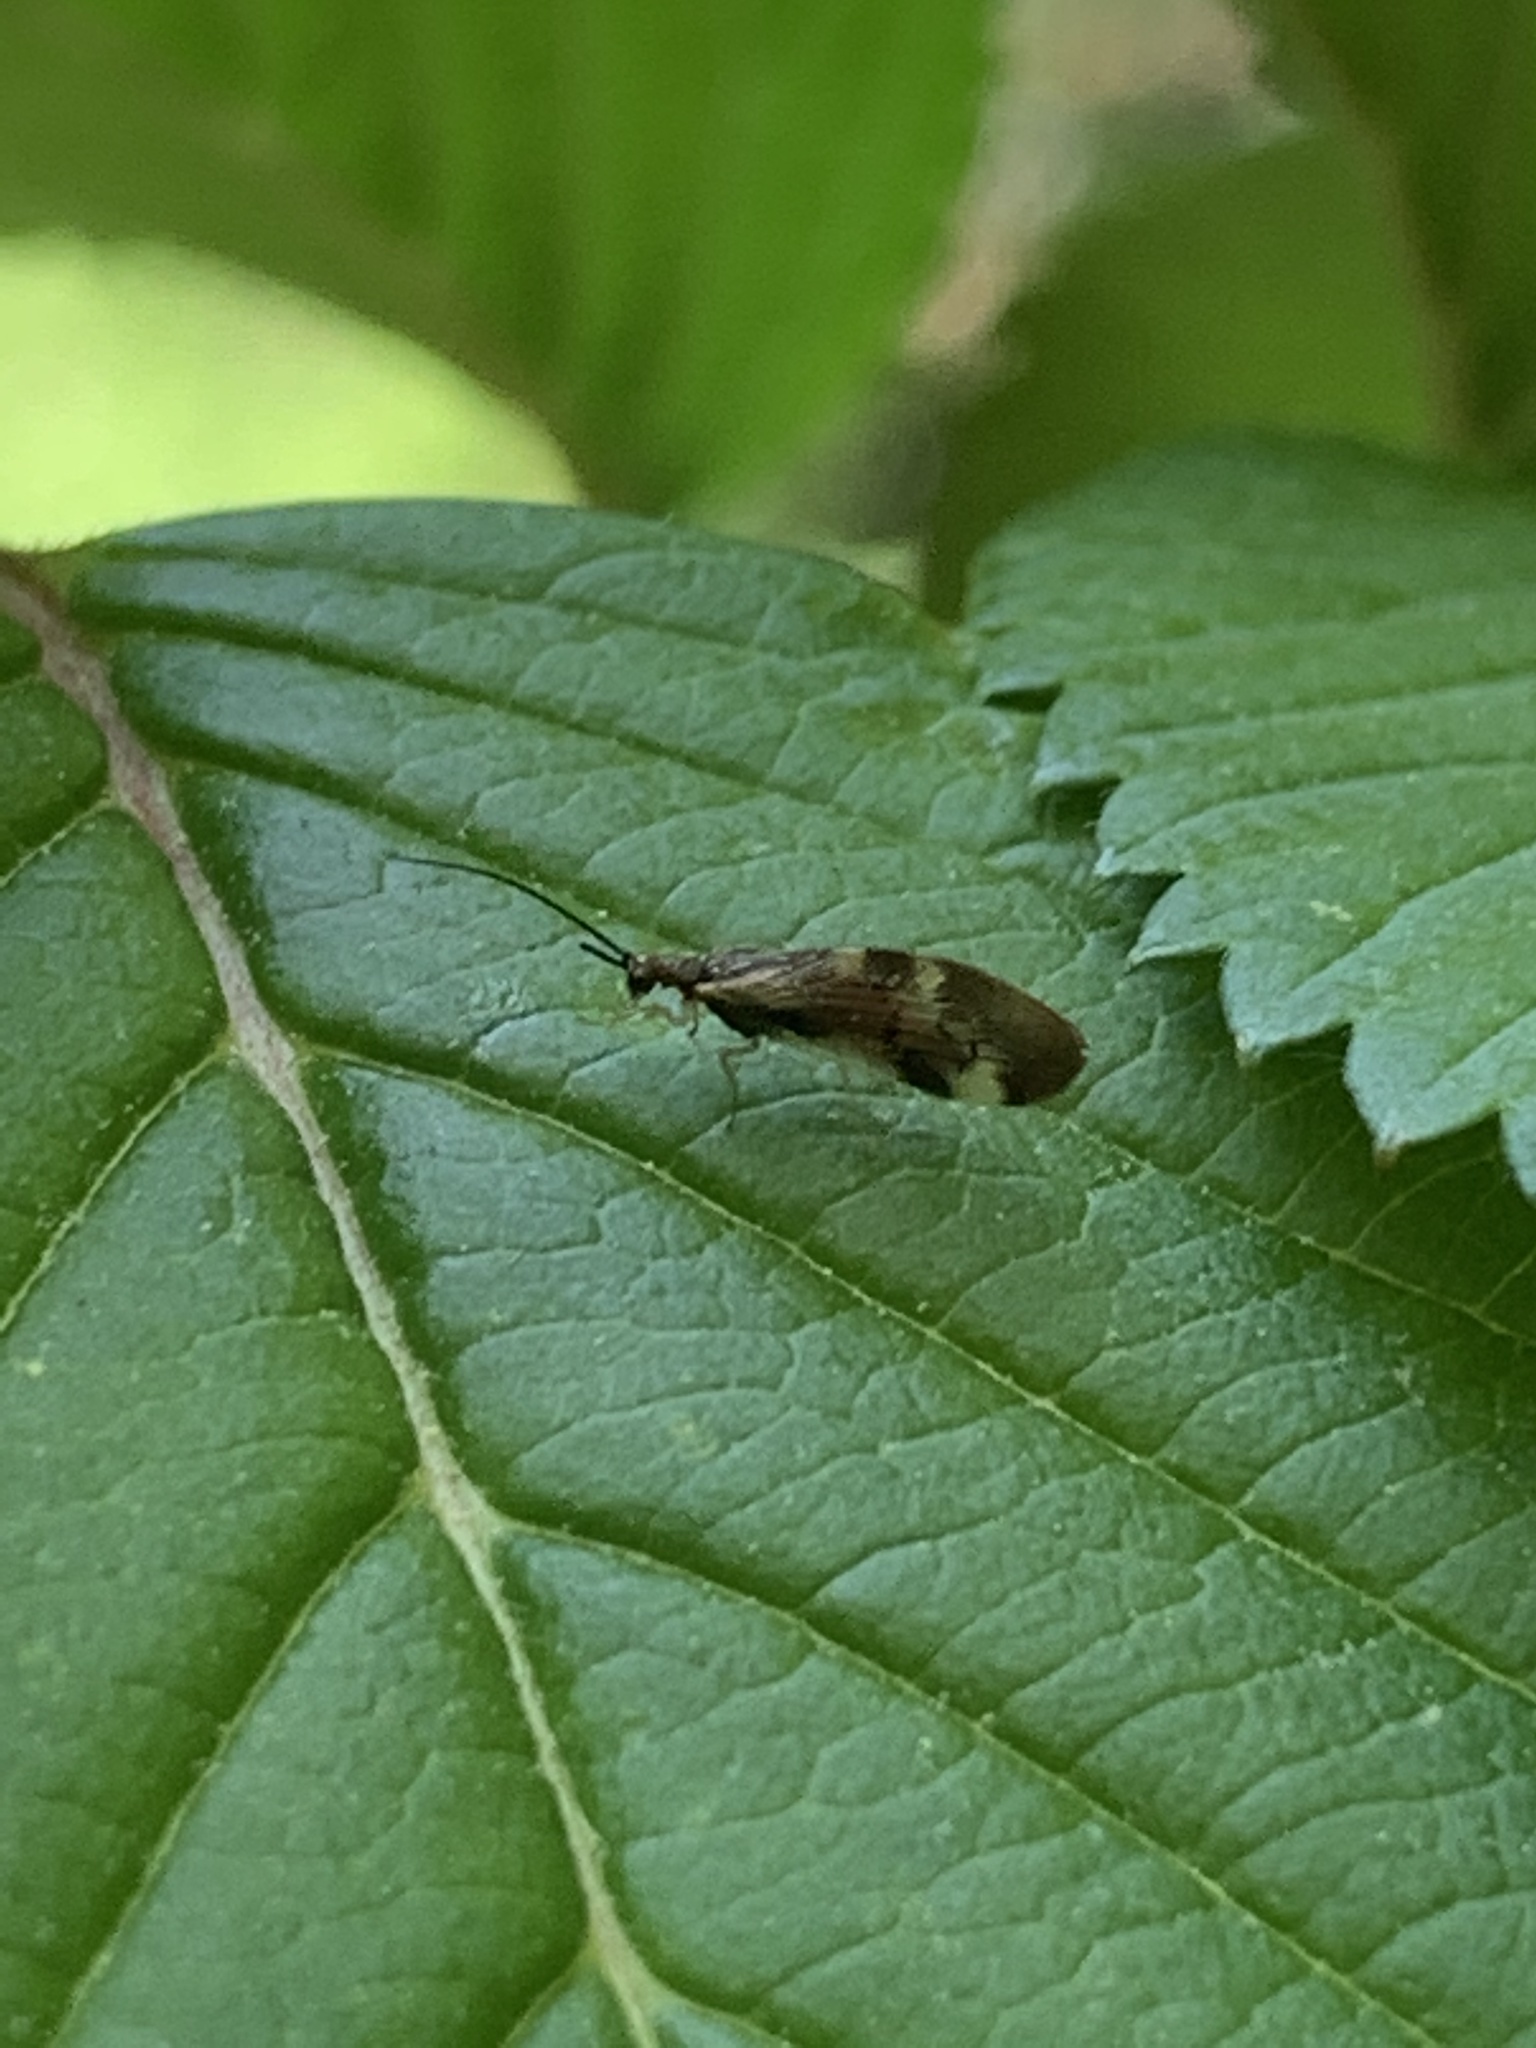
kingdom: Animalia
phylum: Arthropoda
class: Insecta
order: Neuroptera
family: Sisyridae
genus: Climacia
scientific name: Climacia areolaris
